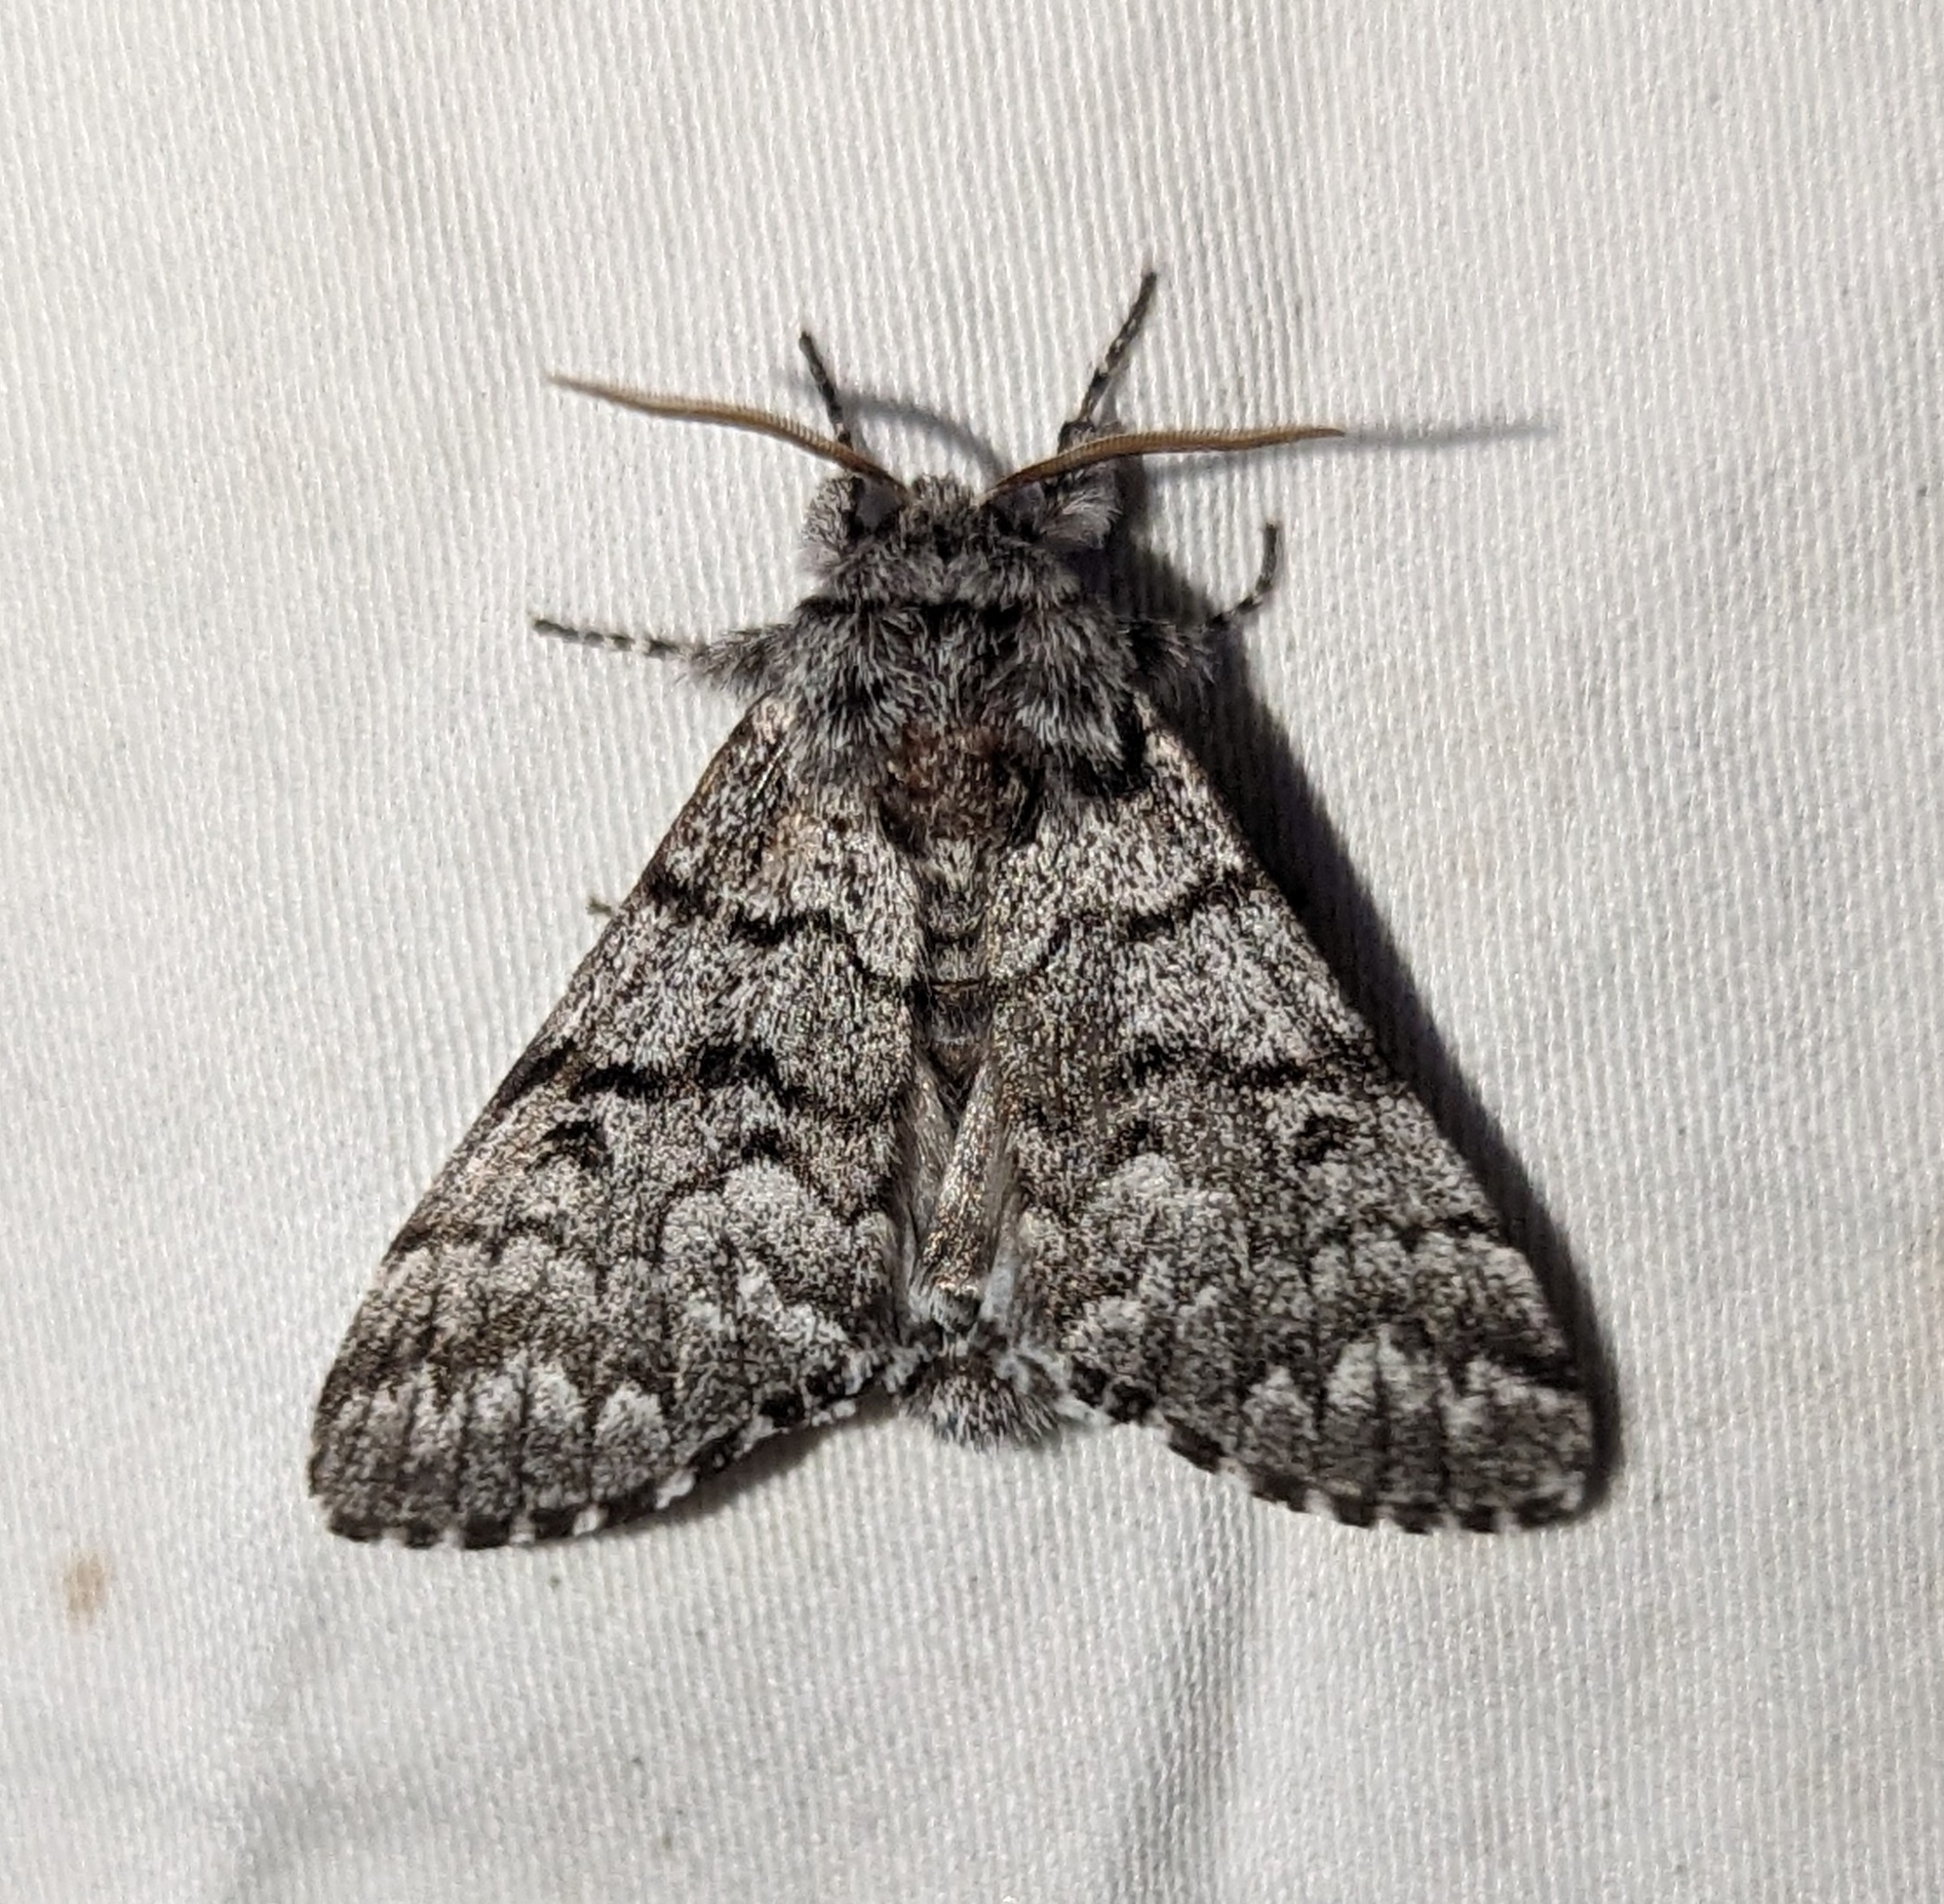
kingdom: Animalia
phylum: Arthropoda
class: Insecta
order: Lepidoptera
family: Noctuidae
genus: Panthea
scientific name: Panthea virginarius
